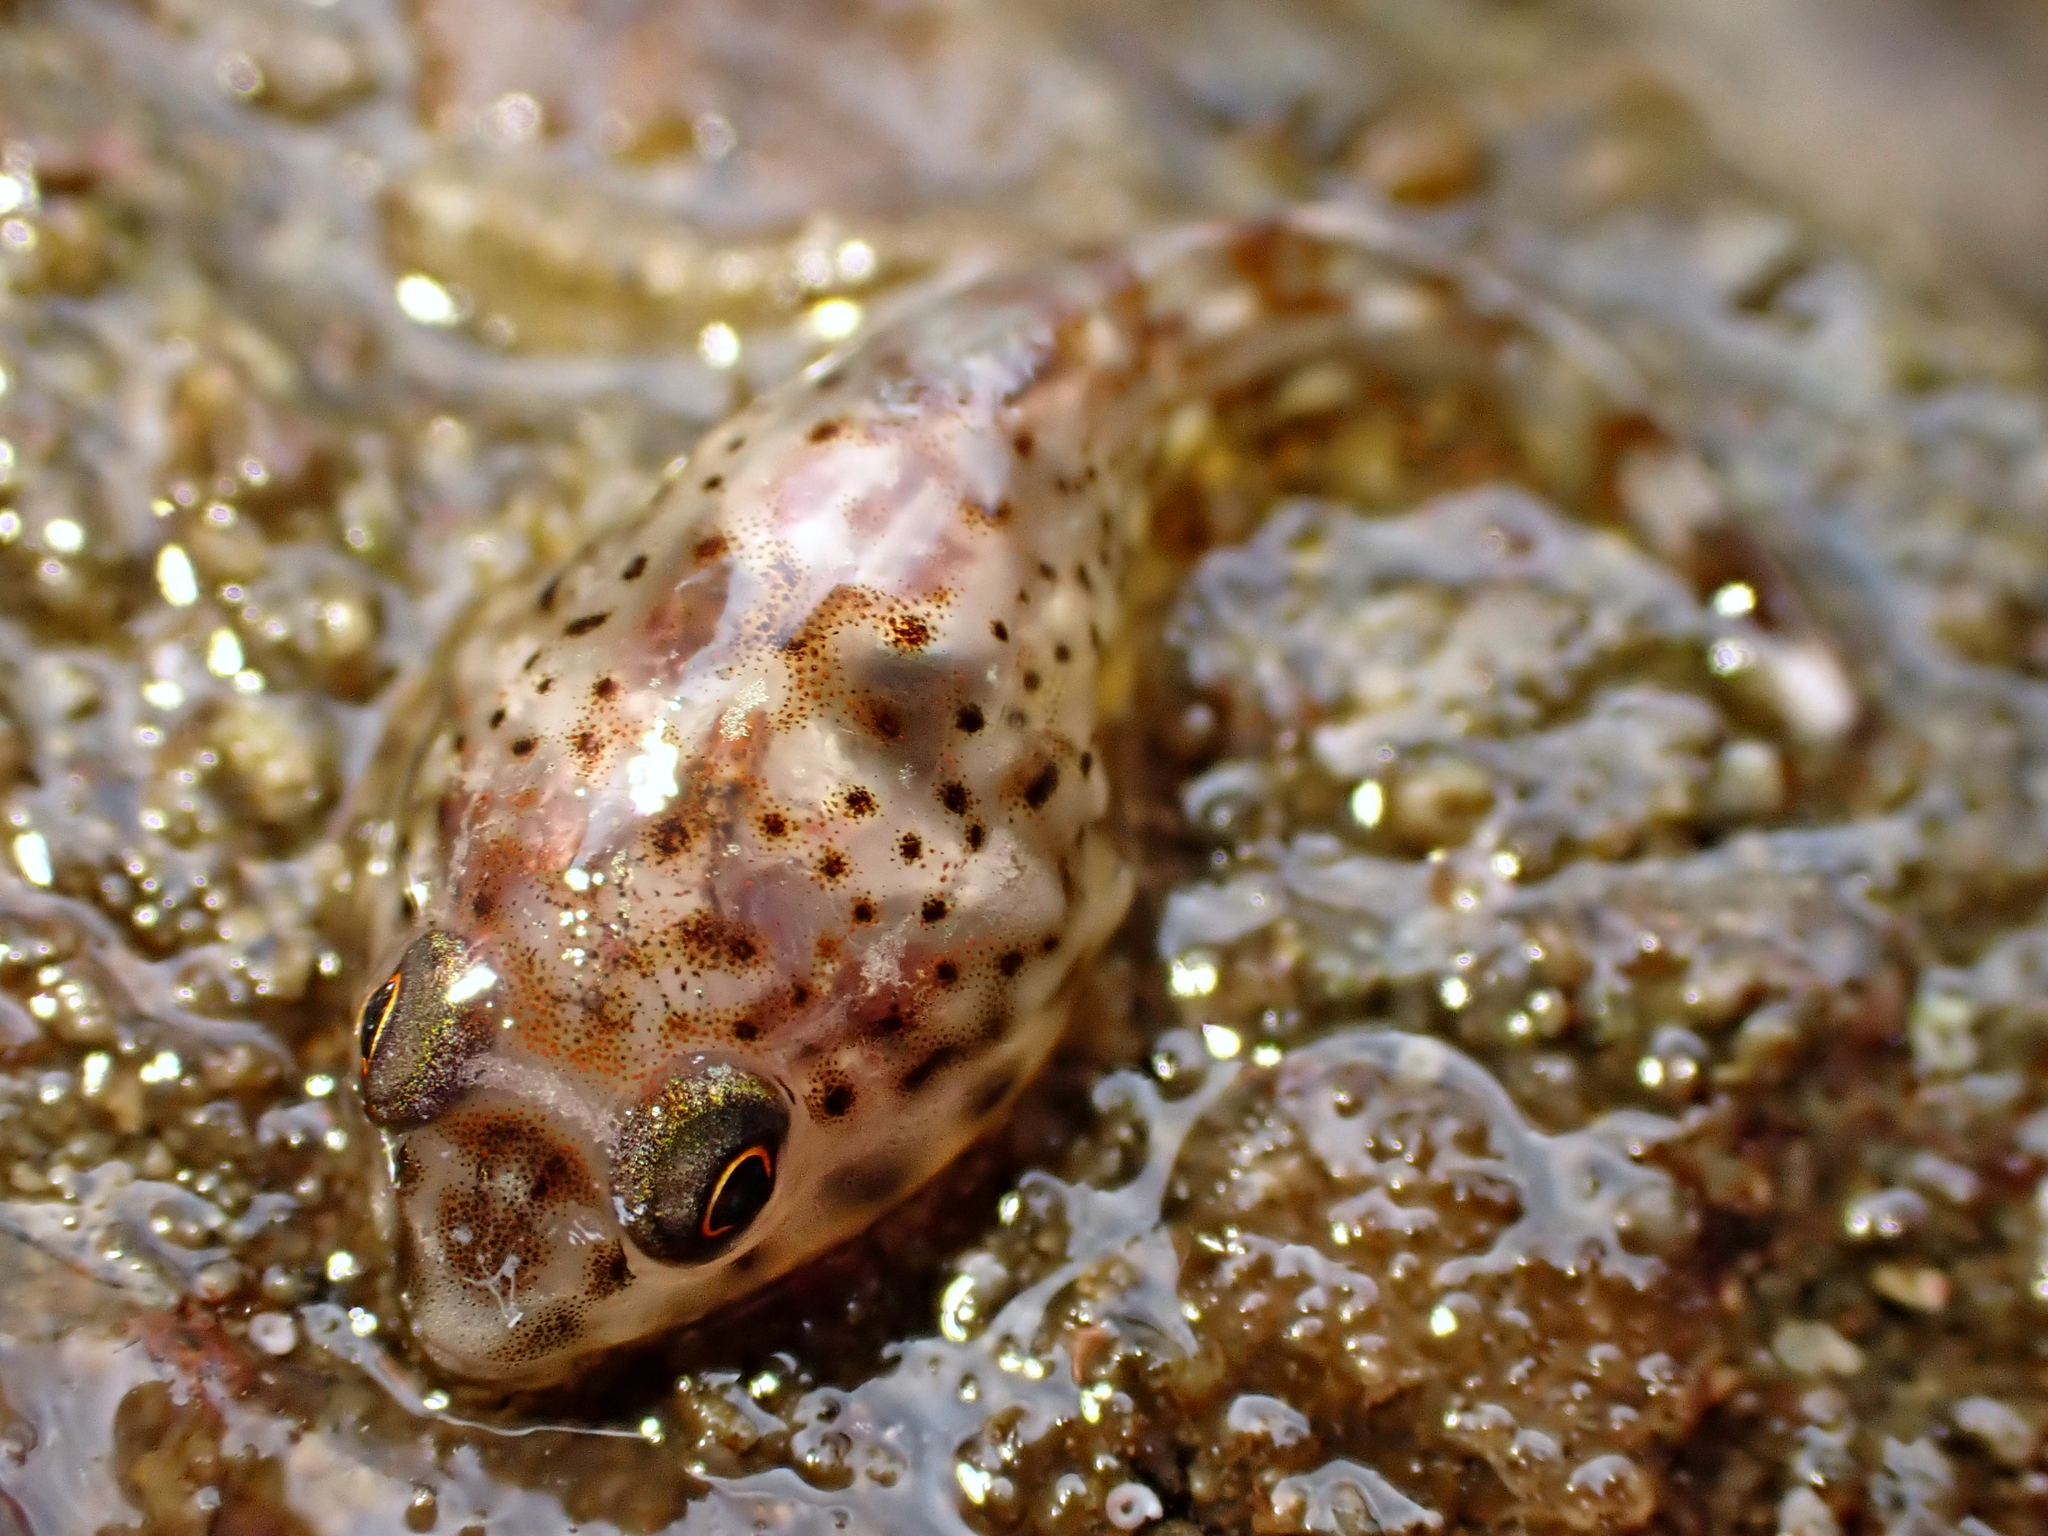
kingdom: Animalia
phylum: Chordata
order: Gobiesociformes
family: Gobiesocidae
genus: Diplocrepis
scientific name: Diplocrepis puniceus
